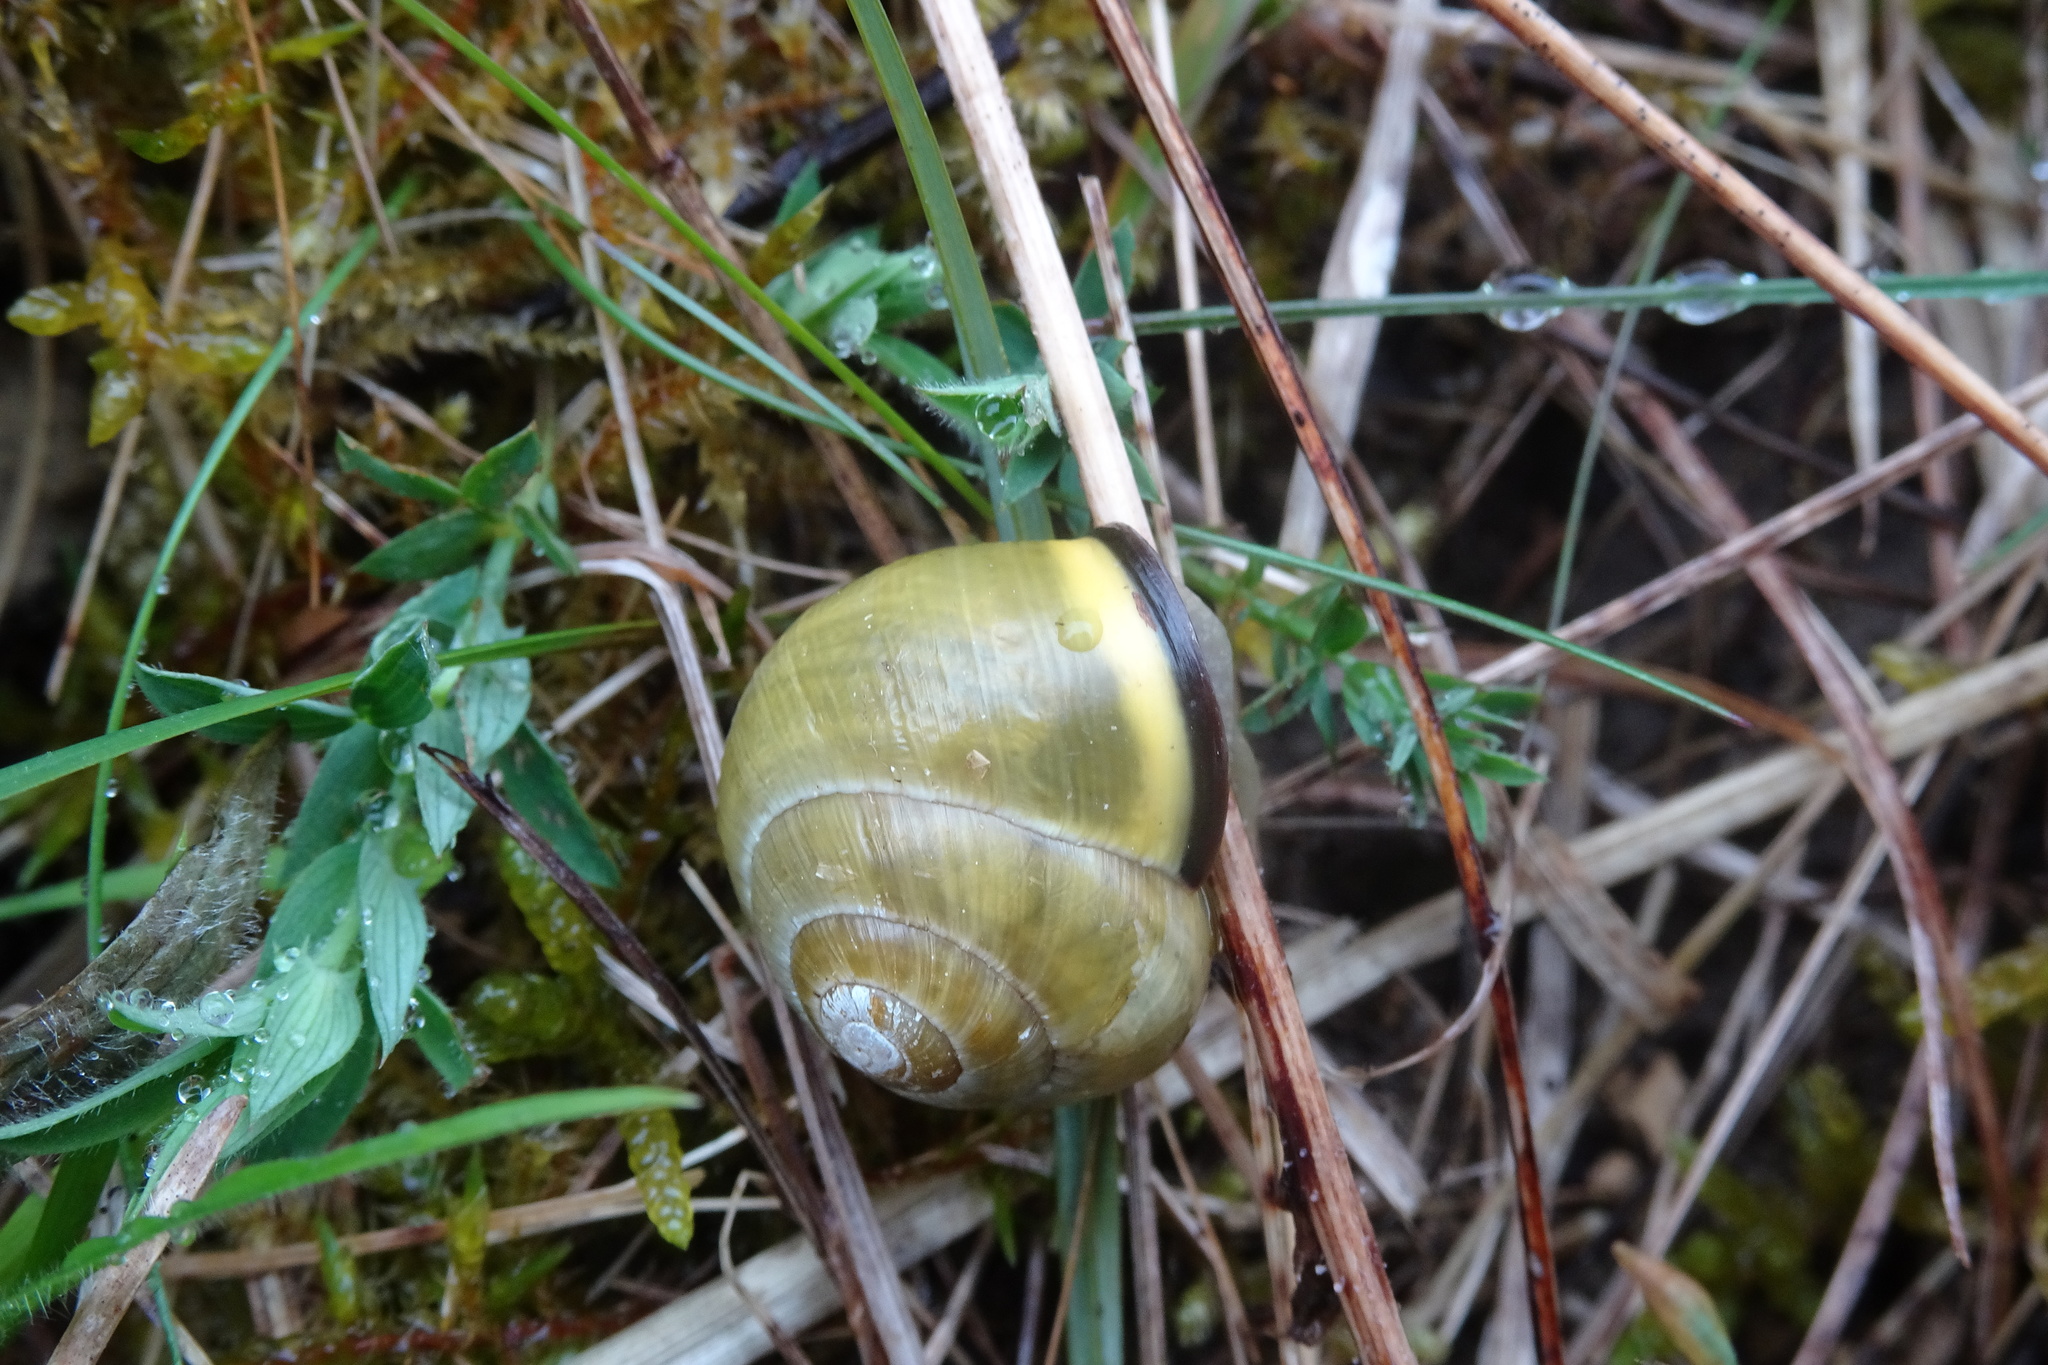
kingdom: Animalia
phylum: Mollusca
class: Gastropoda
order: Stylommatophora
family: Helicidae
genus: Cepaea
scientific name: Cepaea nemoralis
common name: Grovesnail
